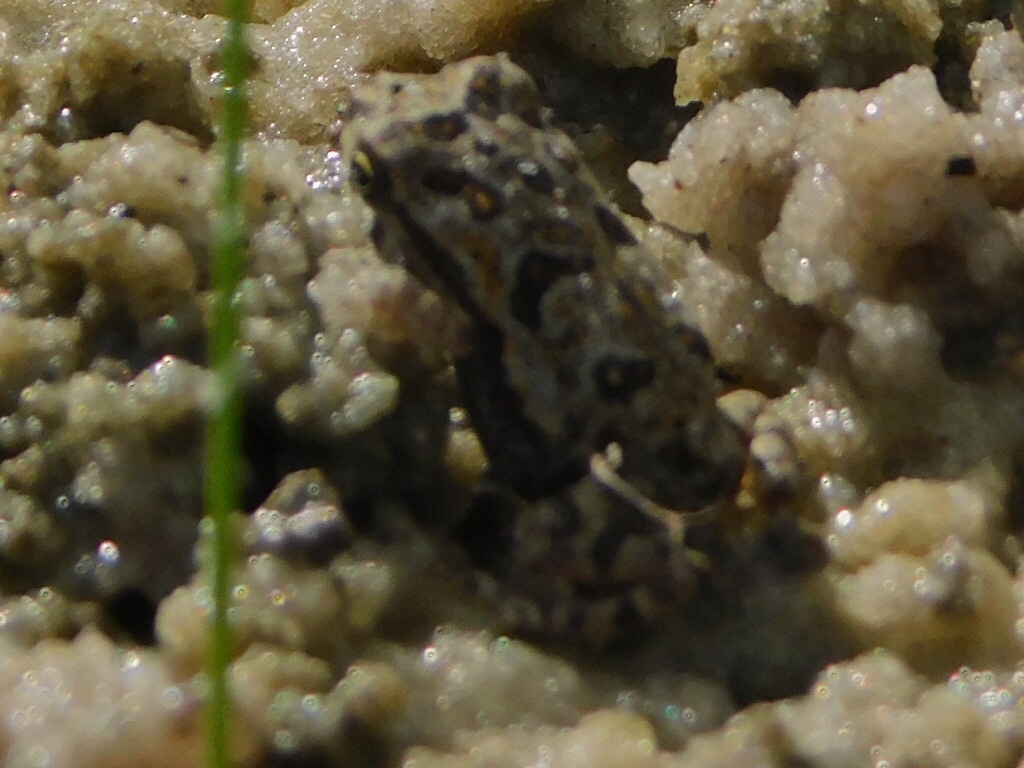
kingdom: Animalia
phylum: Chordata
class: Amphibia
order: Anura
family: Bufonidae
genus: Rhinella
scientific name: Rhinella marina
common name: Cane toad
